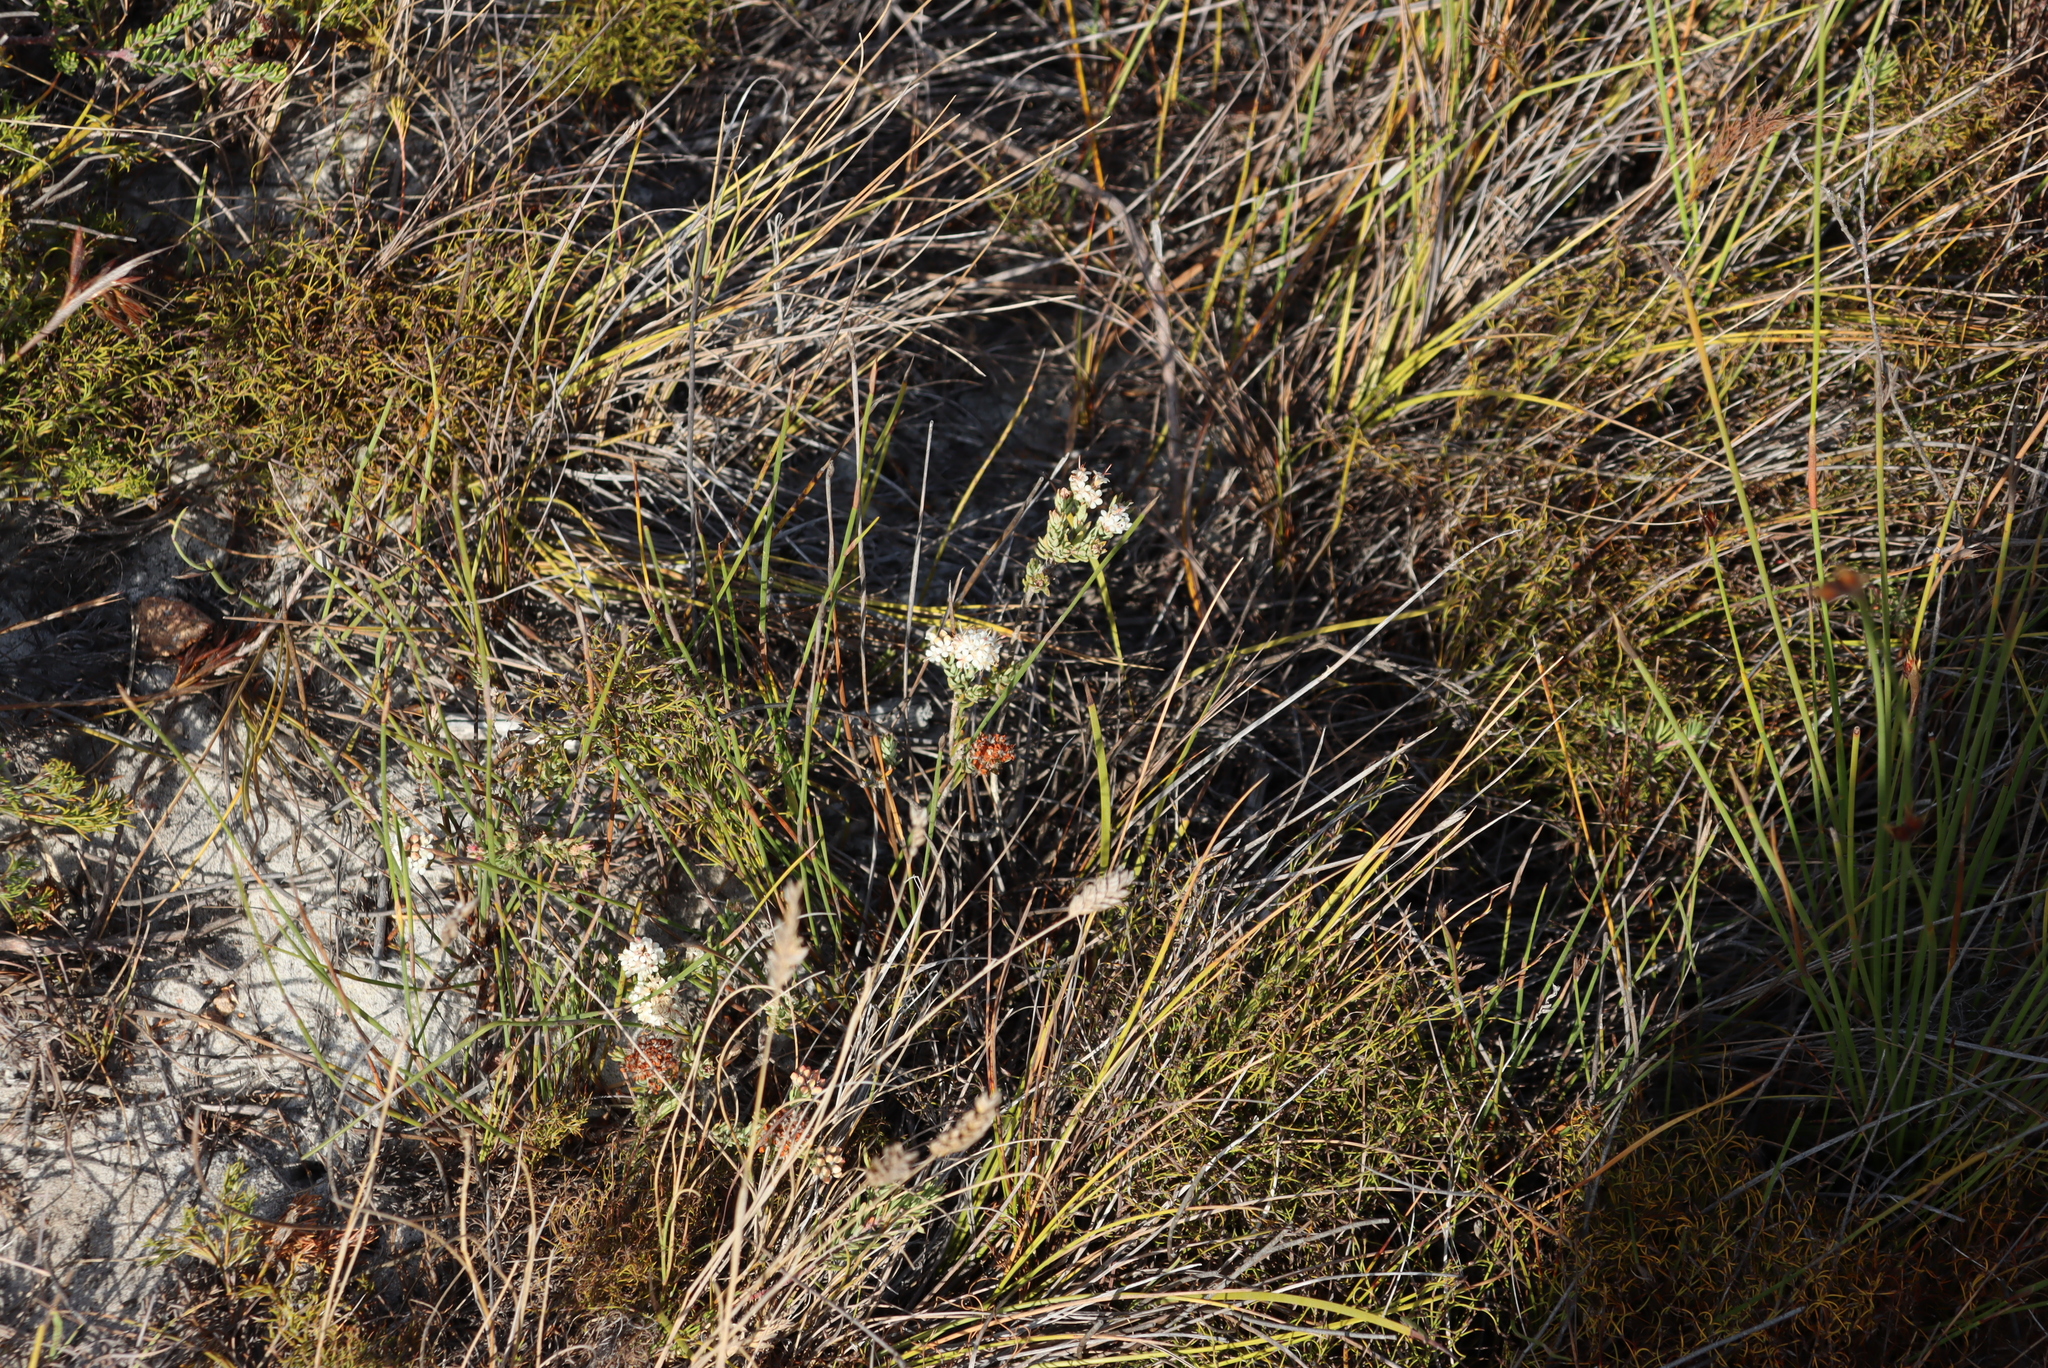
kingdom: Plantae
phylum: Tracheophyta
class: Magnoliopsida
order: Sapindales
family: Rutaceae
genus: Macrostylis
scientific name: Macrostylis villosa
